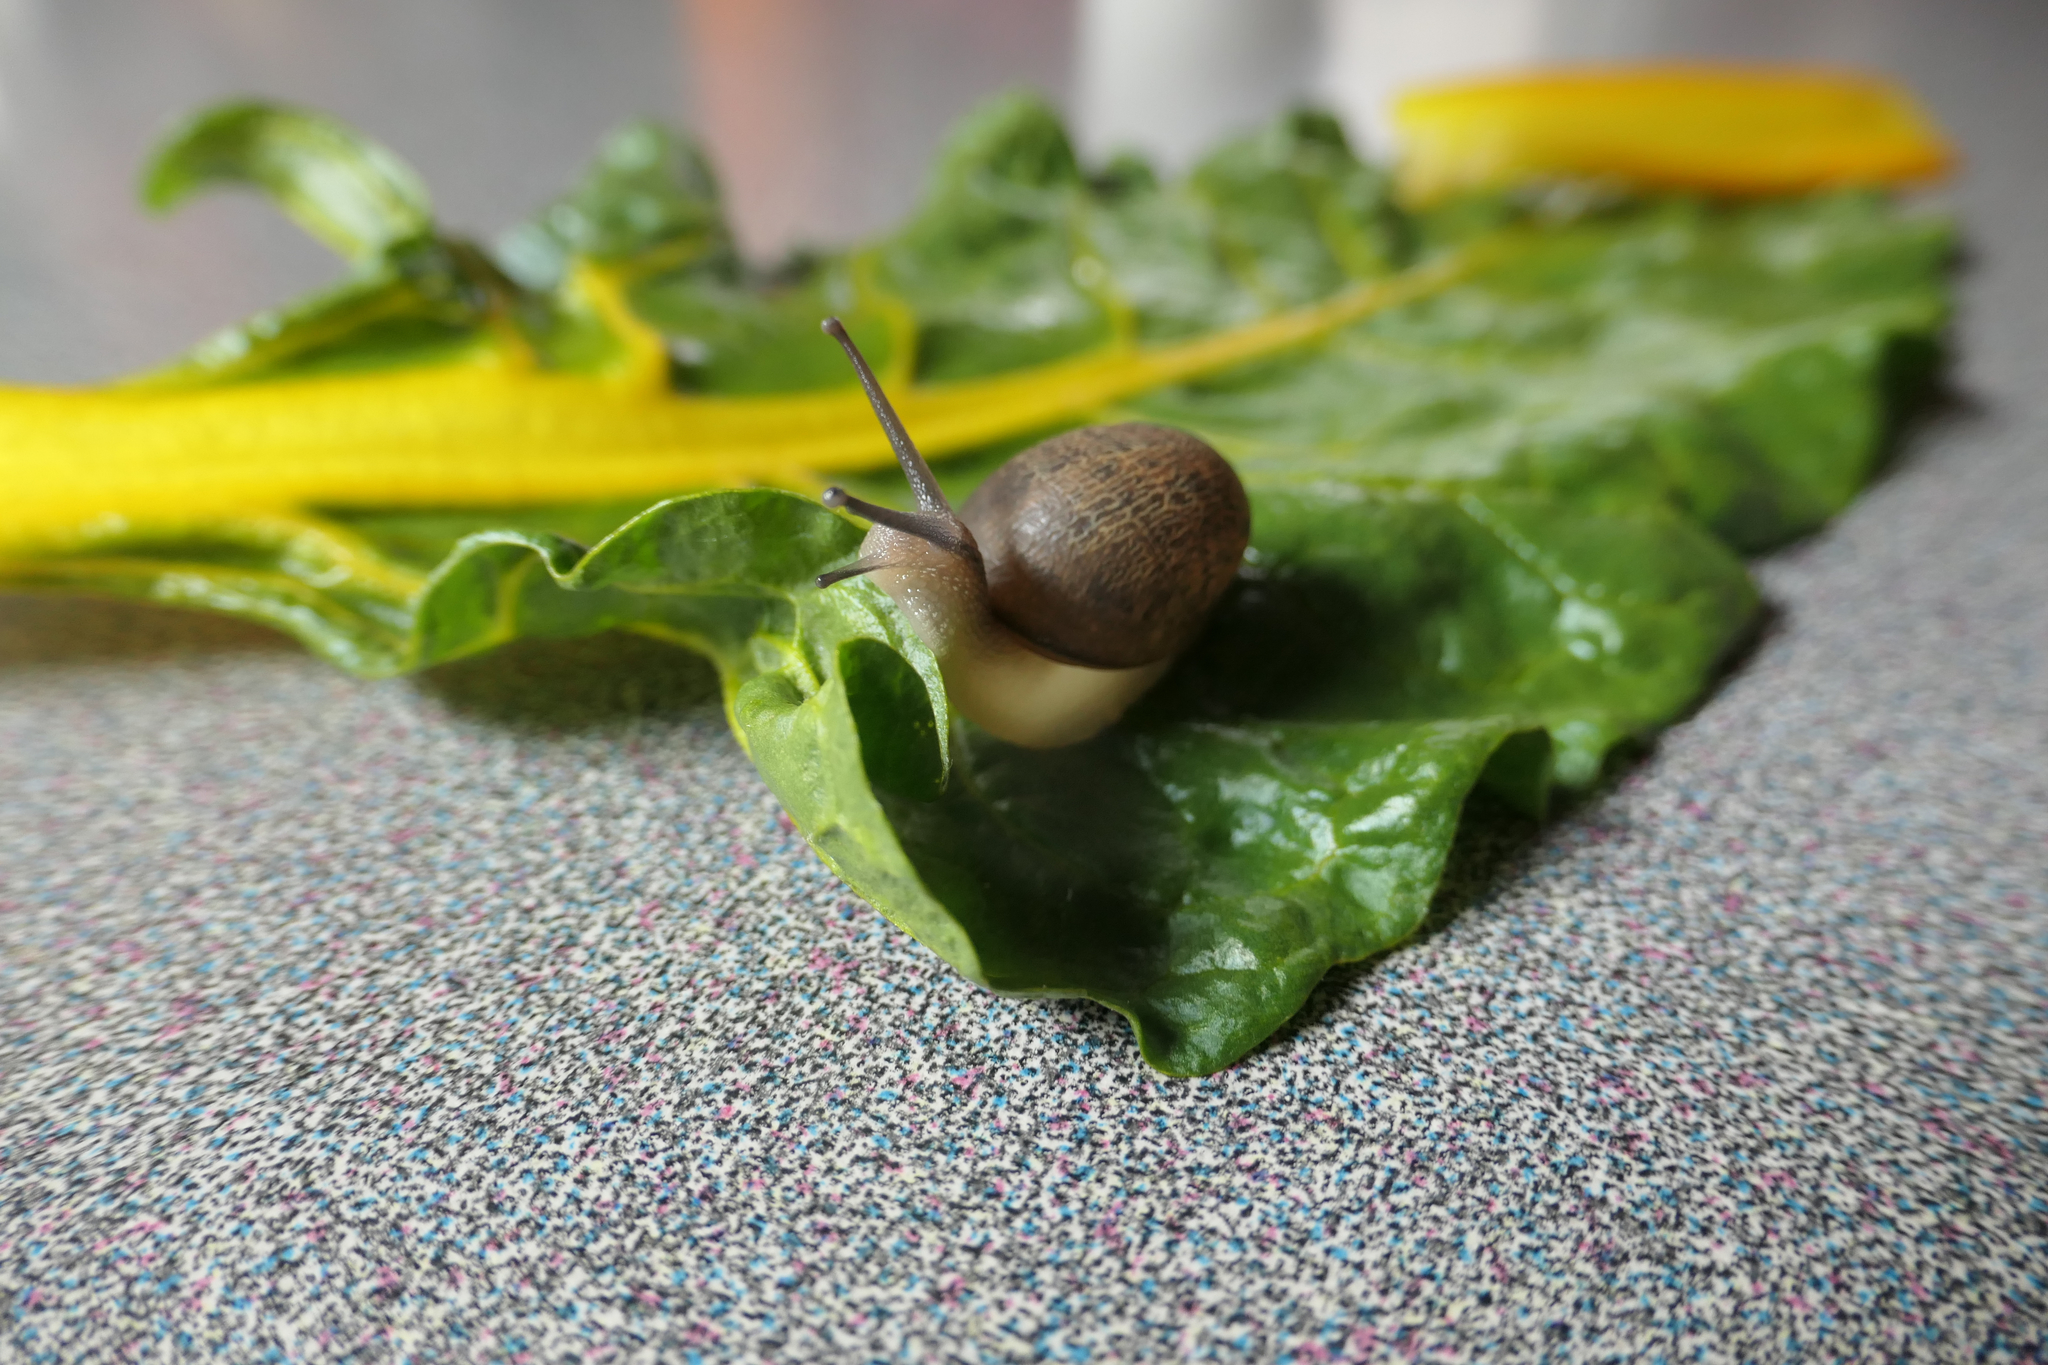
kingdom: Animalia
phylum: Mollusca
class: Gastropoda
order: Stylommatophora
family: Helicidae
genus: Cornu
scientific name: Cornu aspersum
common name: Brown garden snail
